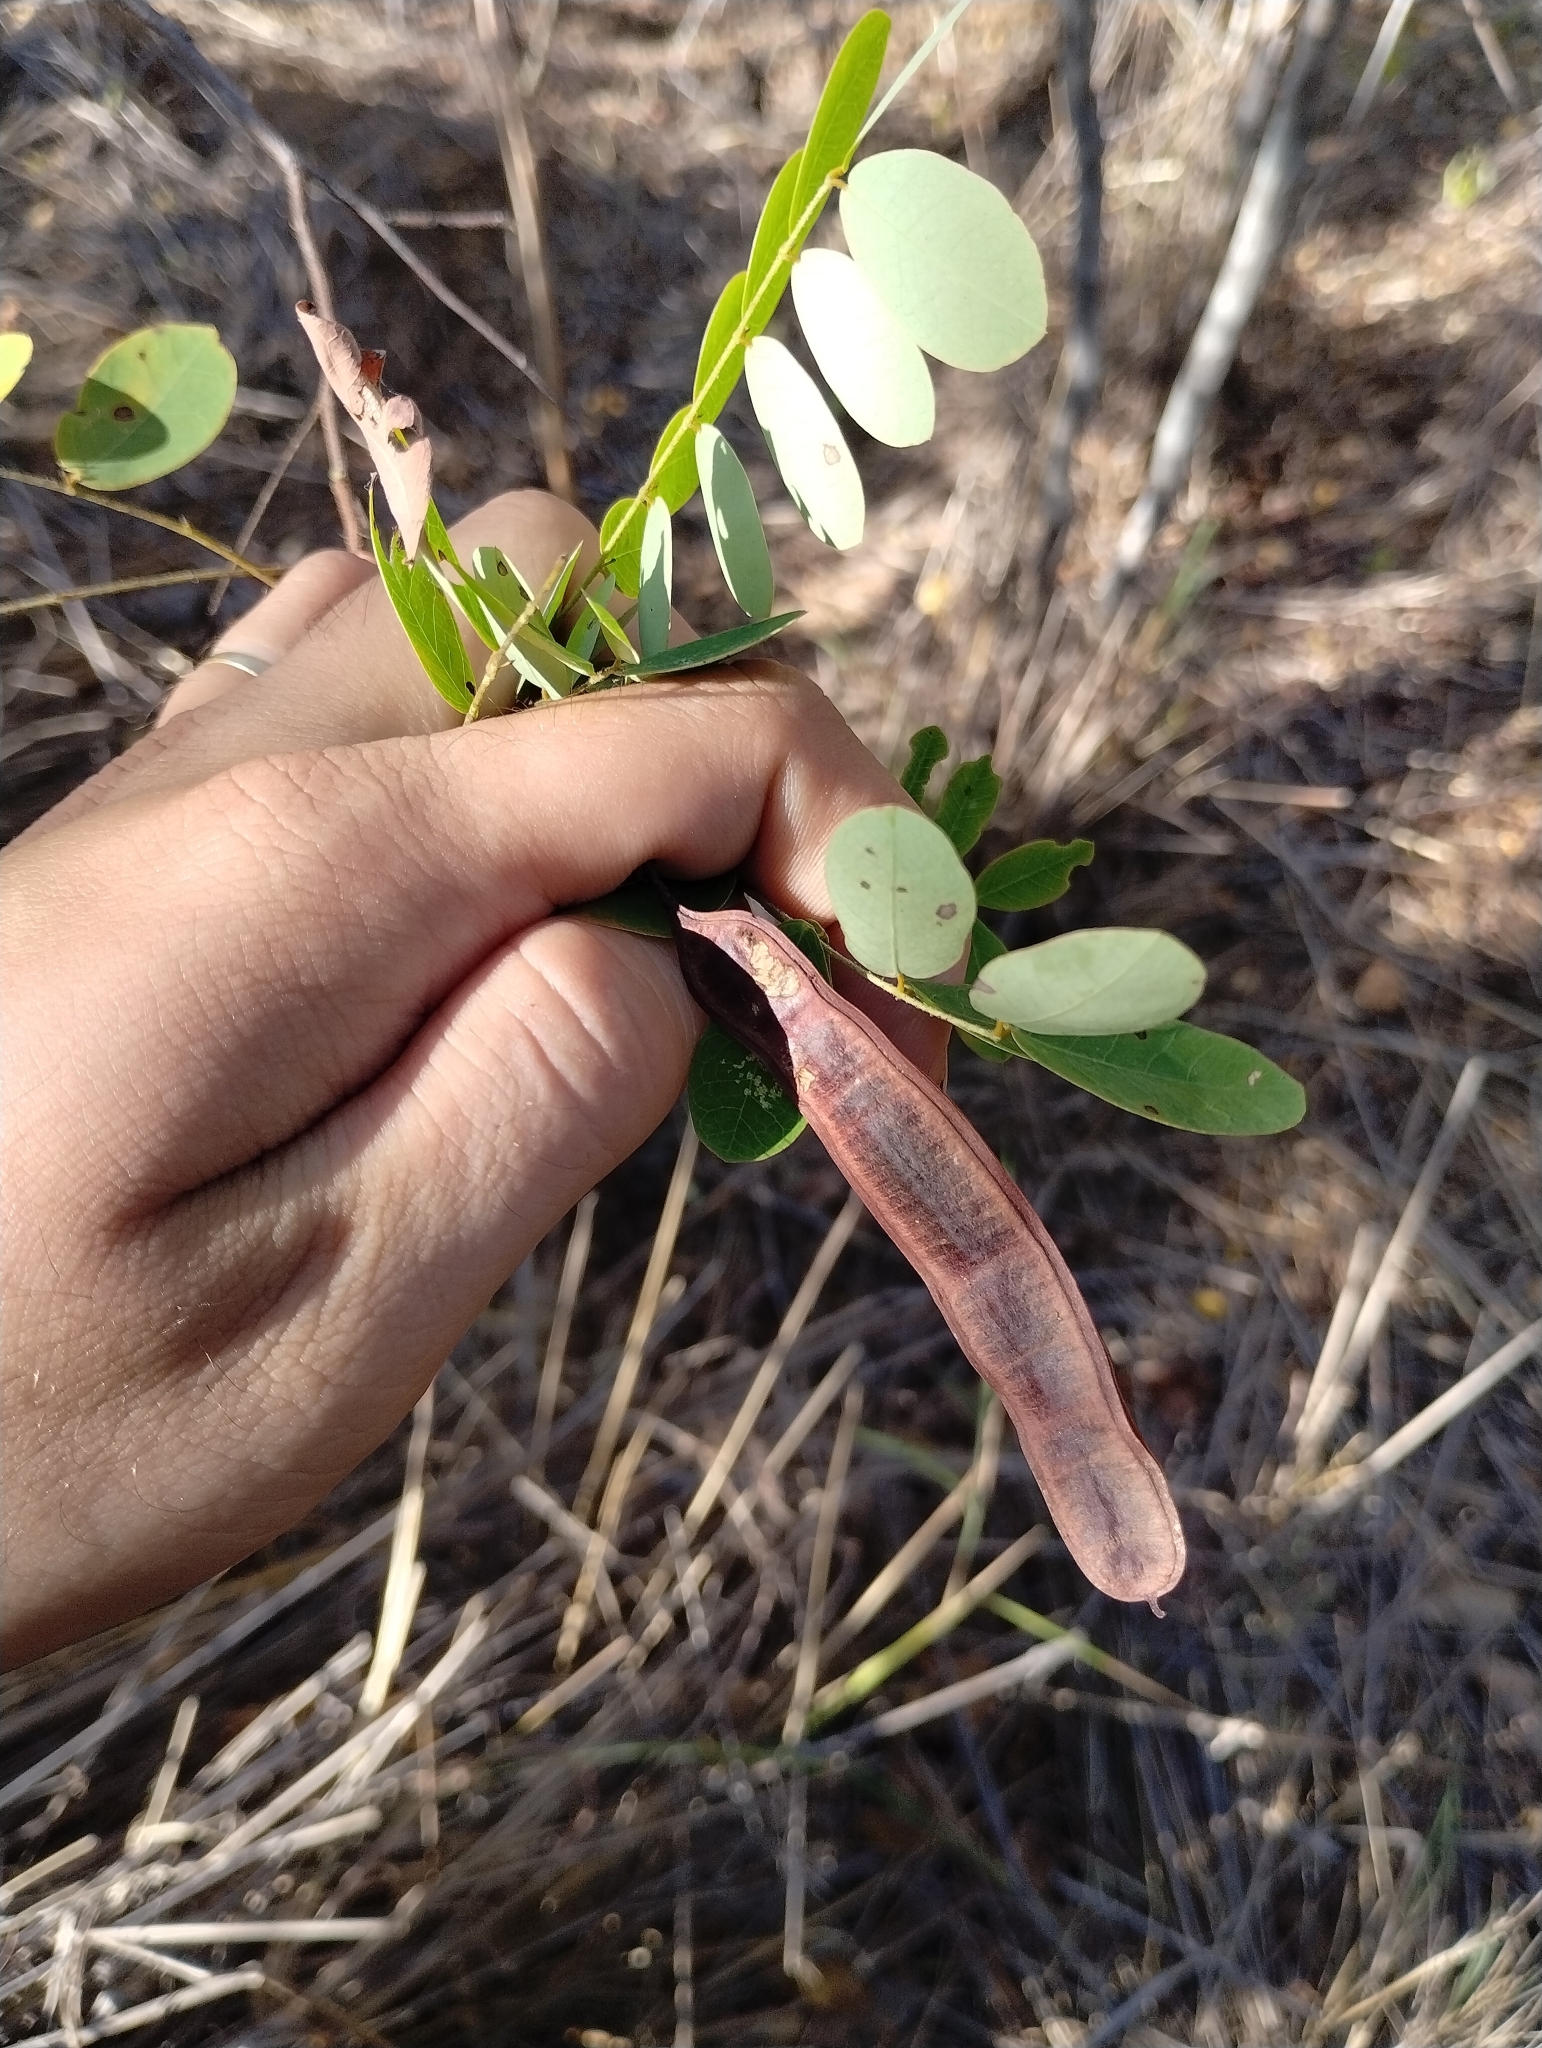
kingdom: Plantae
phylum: Tracheophyta
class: Magnoliopsida
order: Fabales
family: Fabaceae
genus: Senna
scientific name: Senna trachypus
